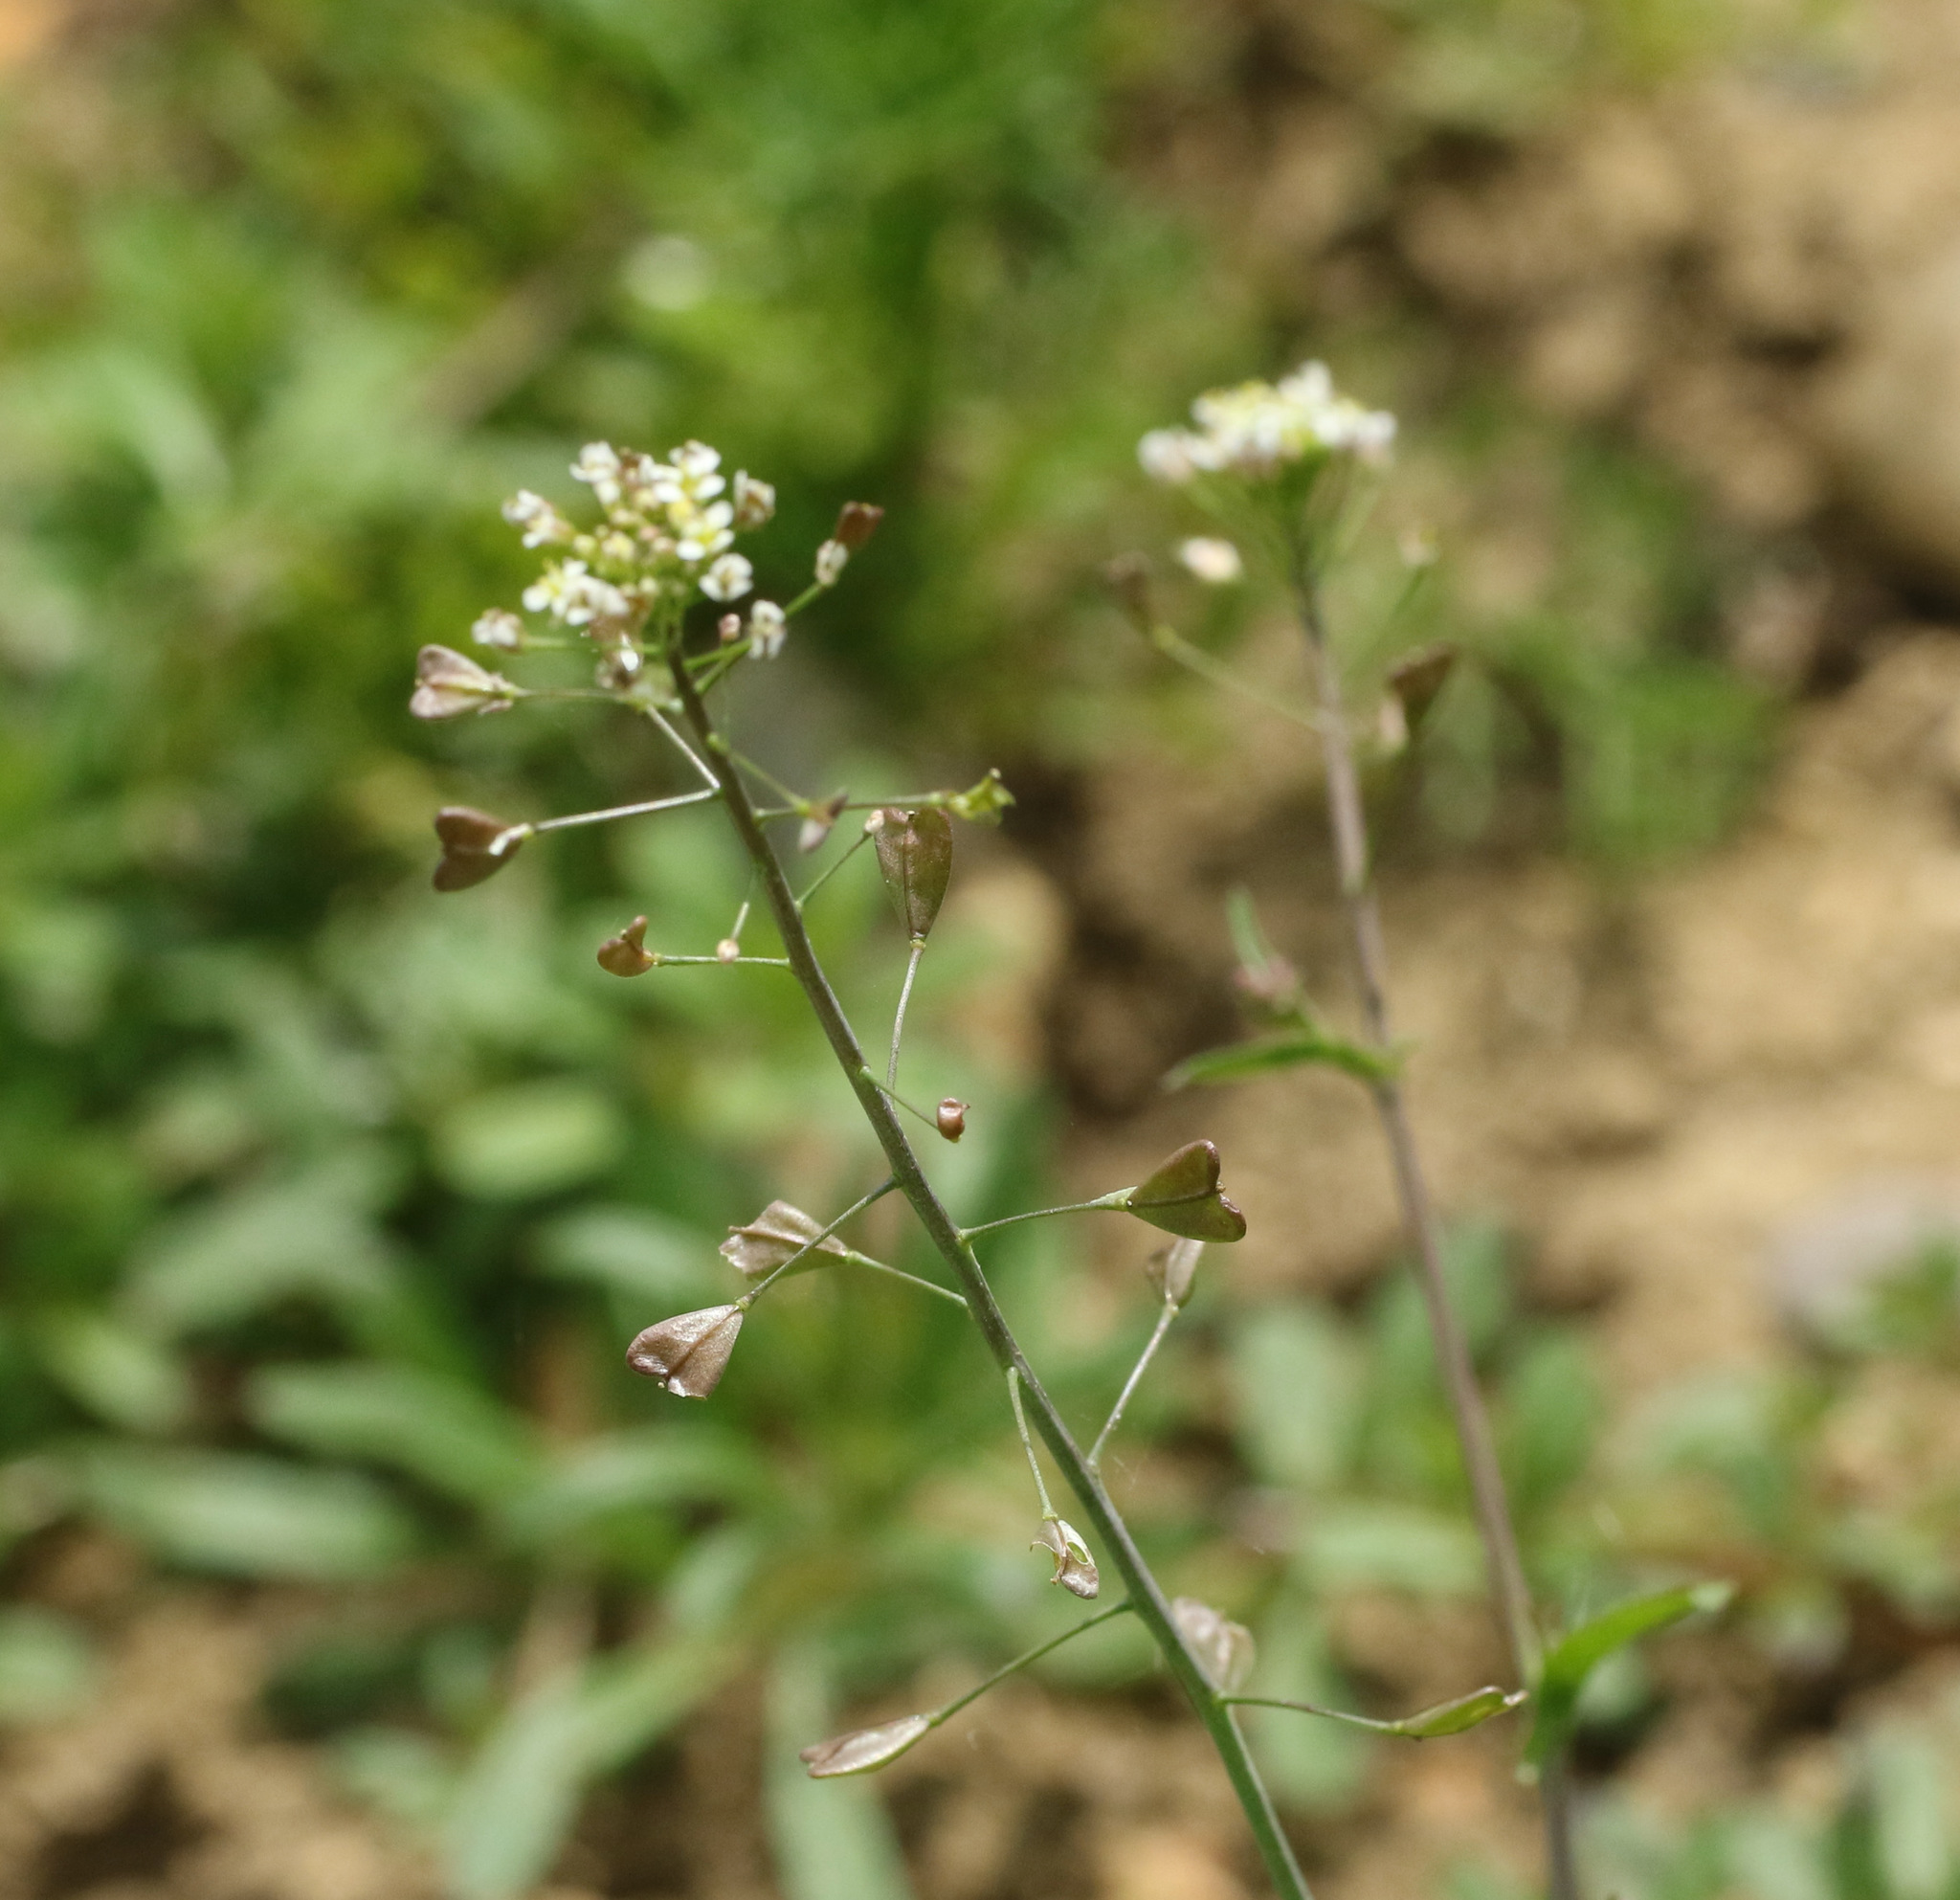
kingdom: Plantae
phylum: Tracheophyta
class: Magnoliopsida
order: Brassicales
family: Brassicaceae
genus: Capsella
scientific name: Capsella bursa-pastoris
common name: Shepherd's purse
